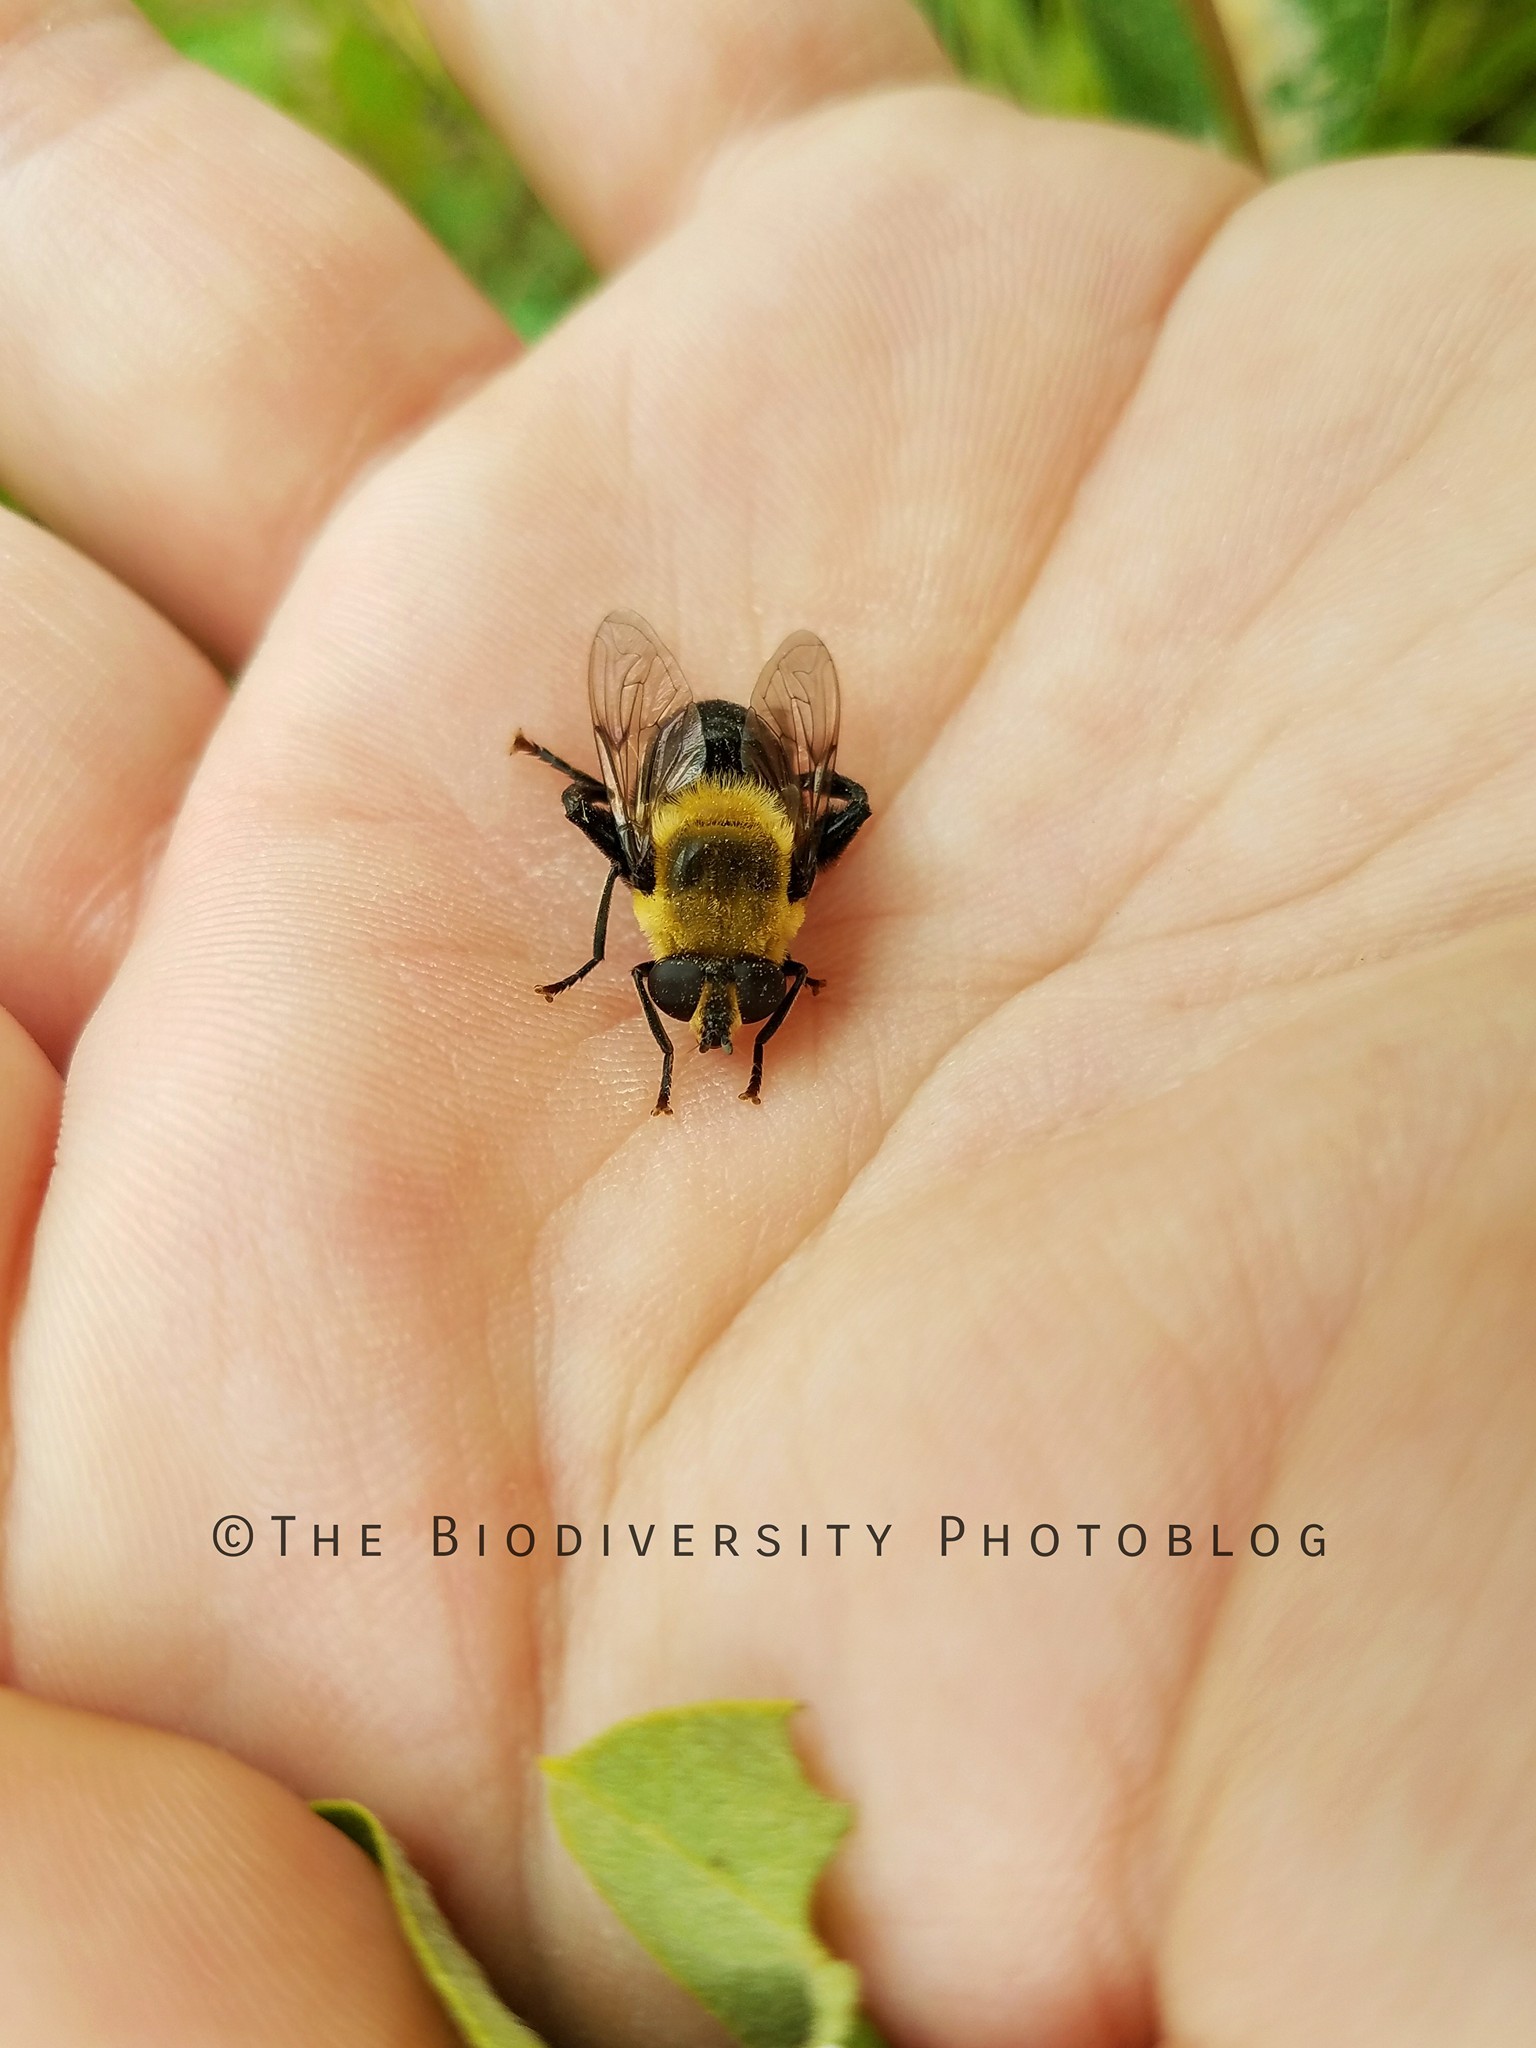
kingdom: Animalia
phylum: Arthropoda
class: Insecta
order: Diptera
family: Syrphidae
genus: Imatisma
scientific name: Imatisma bautias
